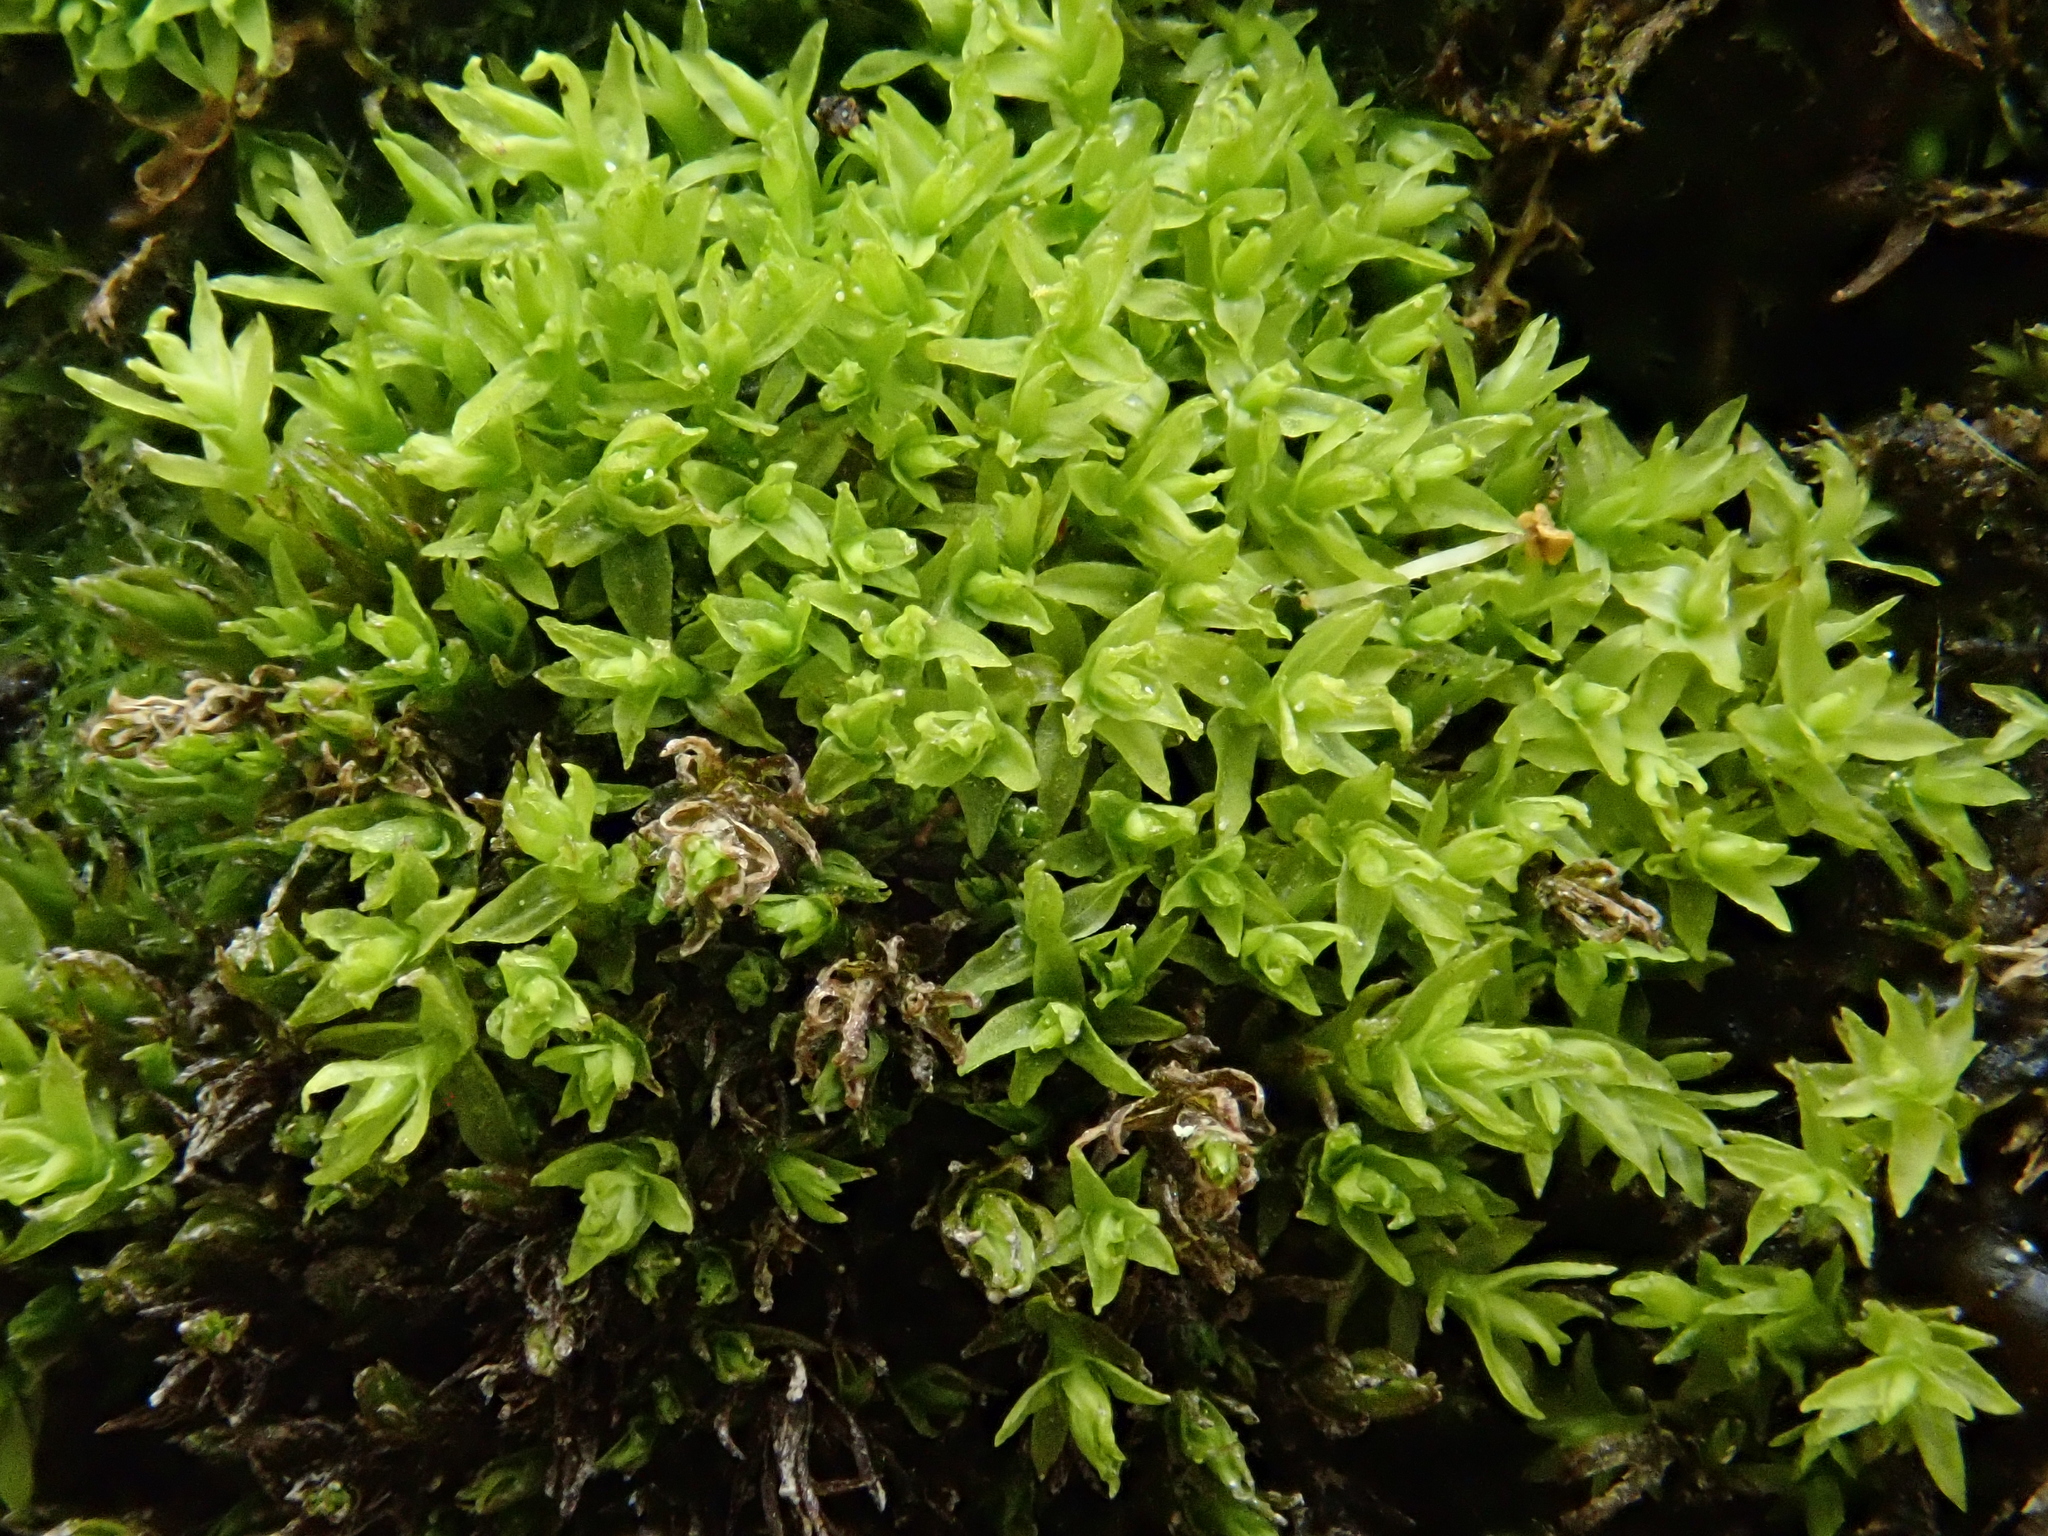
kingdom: Plantae
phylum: Bryophyta
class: Bryopsida
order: Dicranales
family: Aongstroemiaceae
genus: Dichodontium
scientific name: Dichodontium pellucidum
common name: Transparent fork moss
